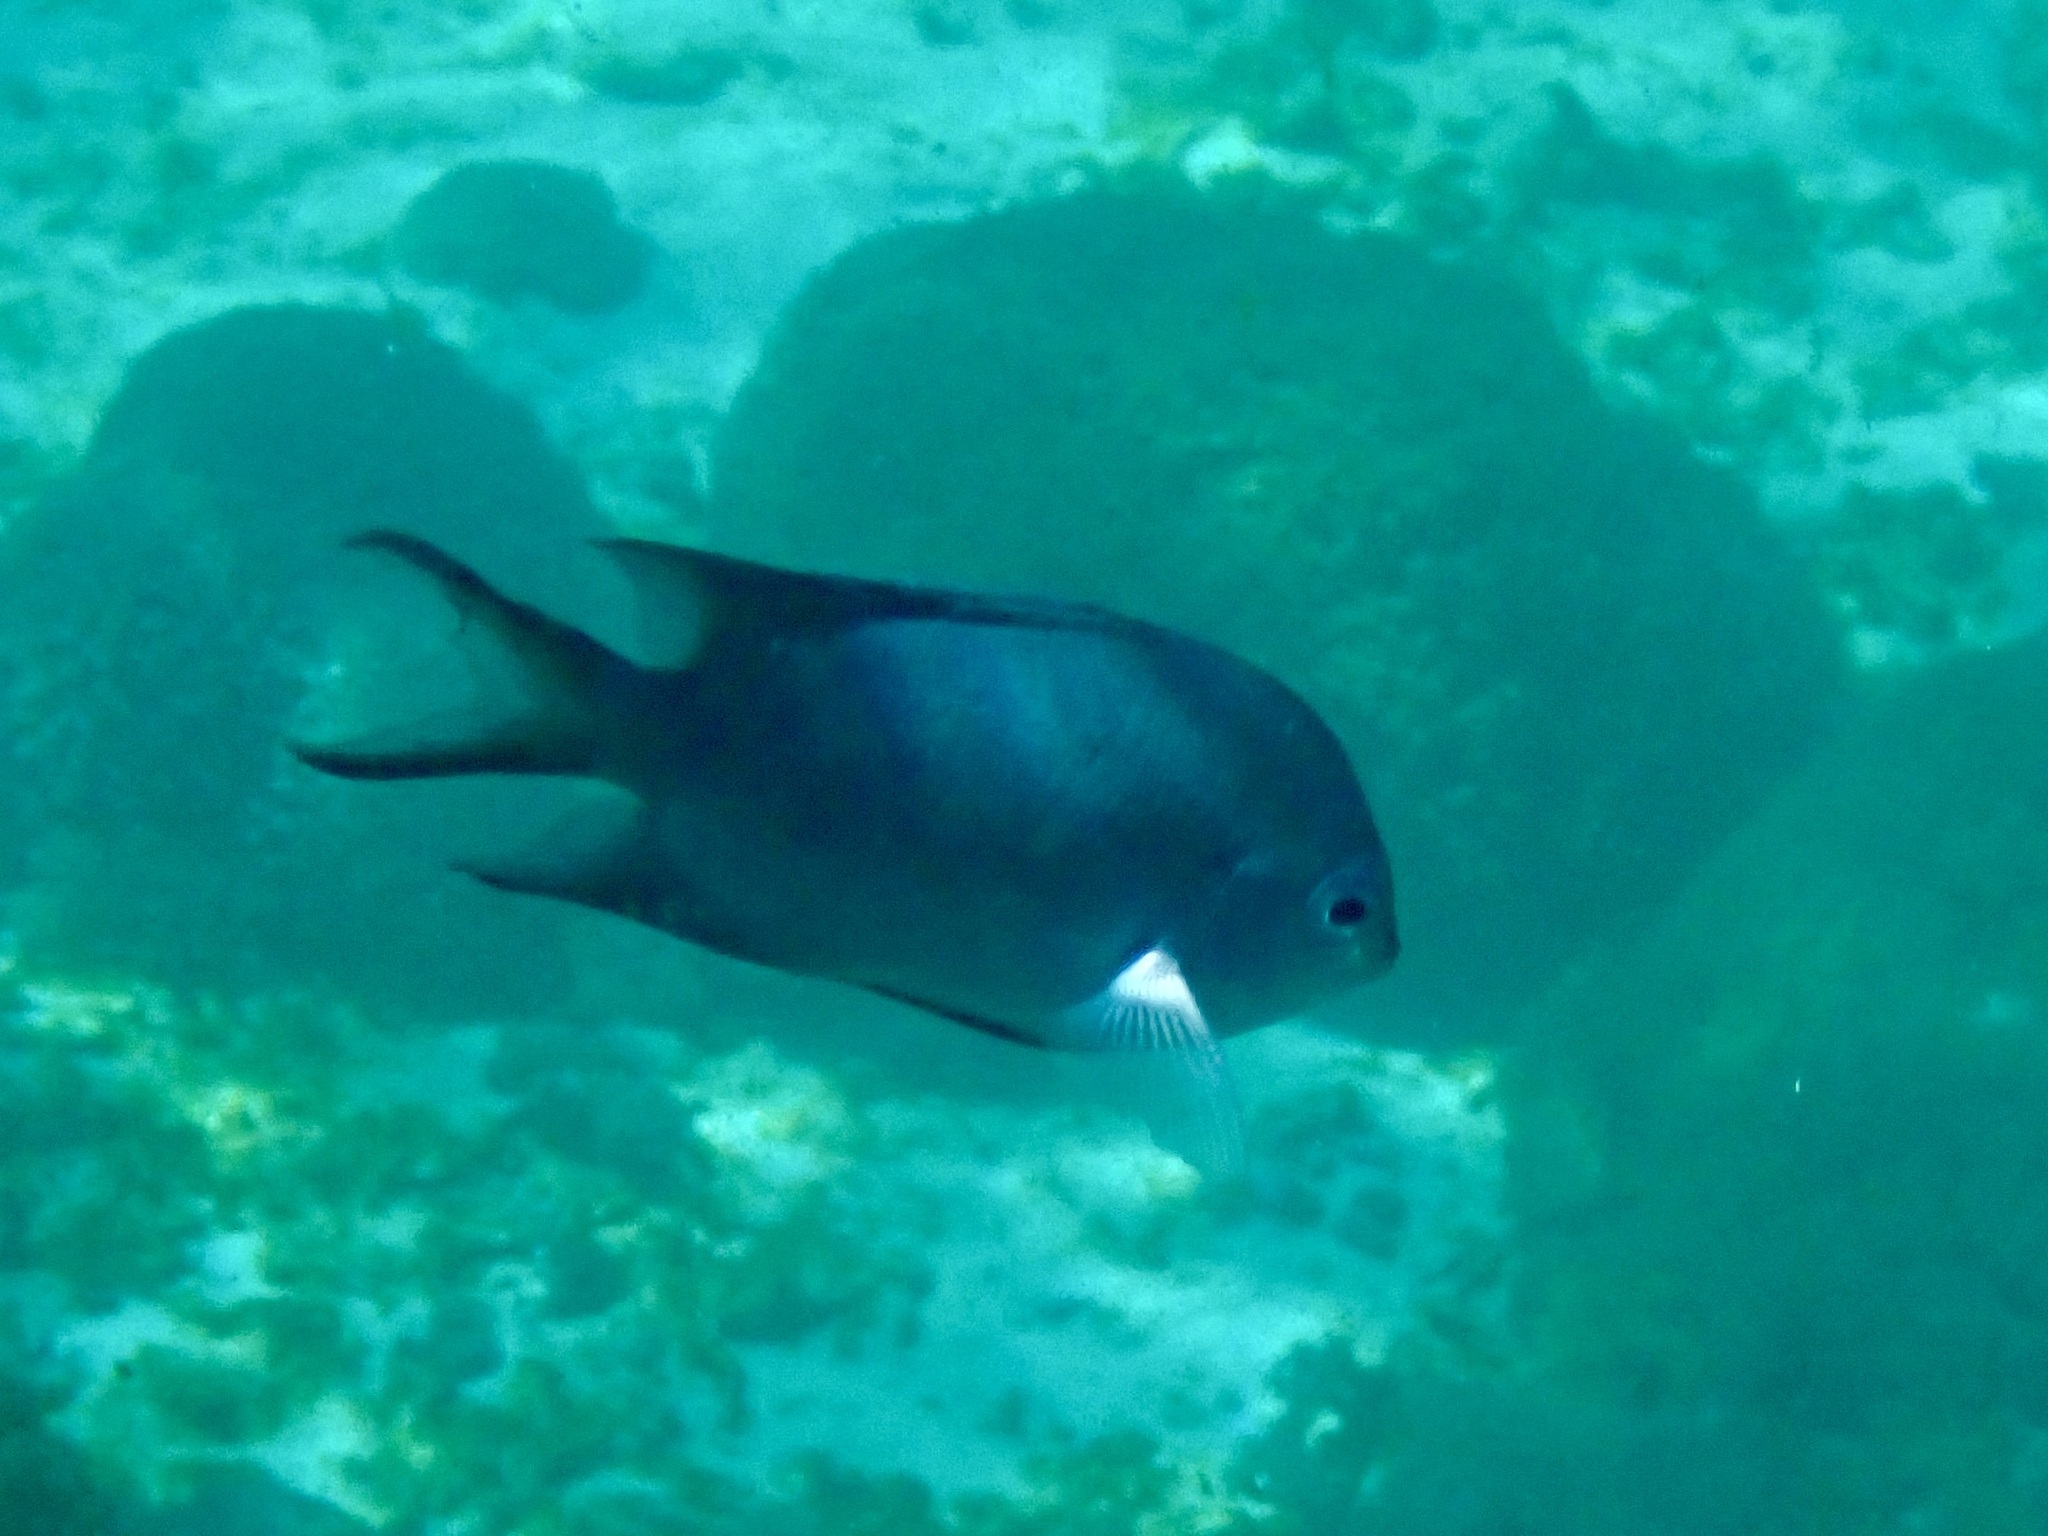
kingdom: Animalia
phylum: Chordata
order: Perciformes
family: Pomacentridae
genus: Acanthochromis
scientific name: Acanthochromis polyacanthus
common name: Spiny chromis
